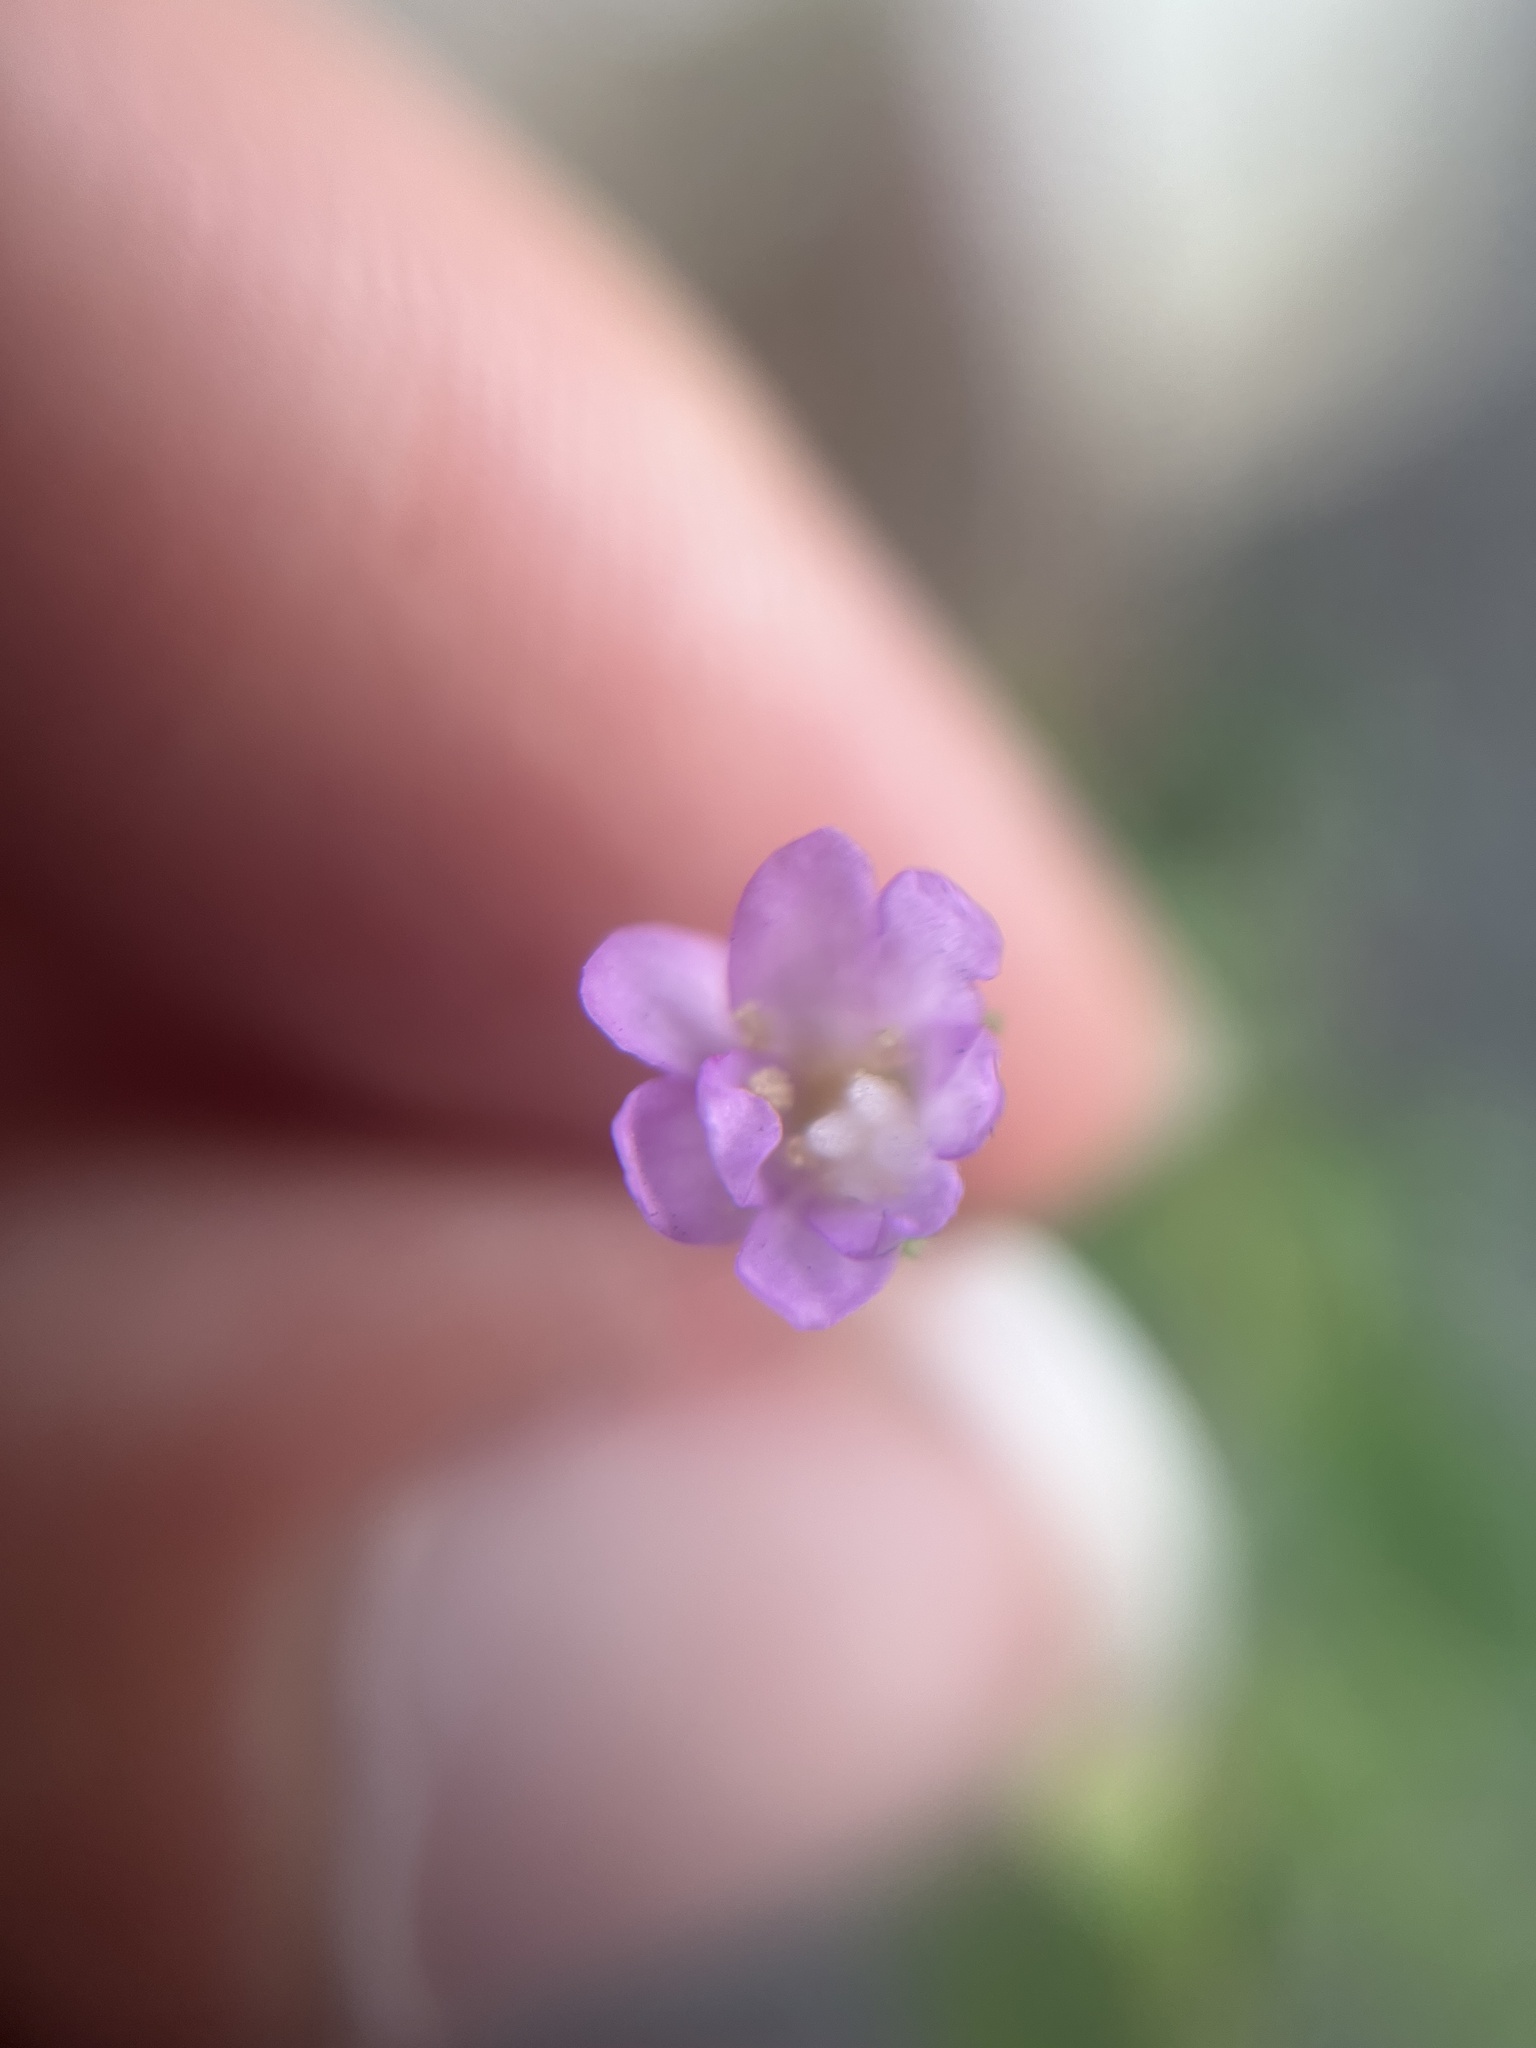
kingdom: Plantae
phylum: Tracheophyta
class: Magnoliopsida
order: Myrtales
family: Onagraceae
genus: Epilobium
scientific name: Epilobium montanum
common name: Broad-leaved willowherb
